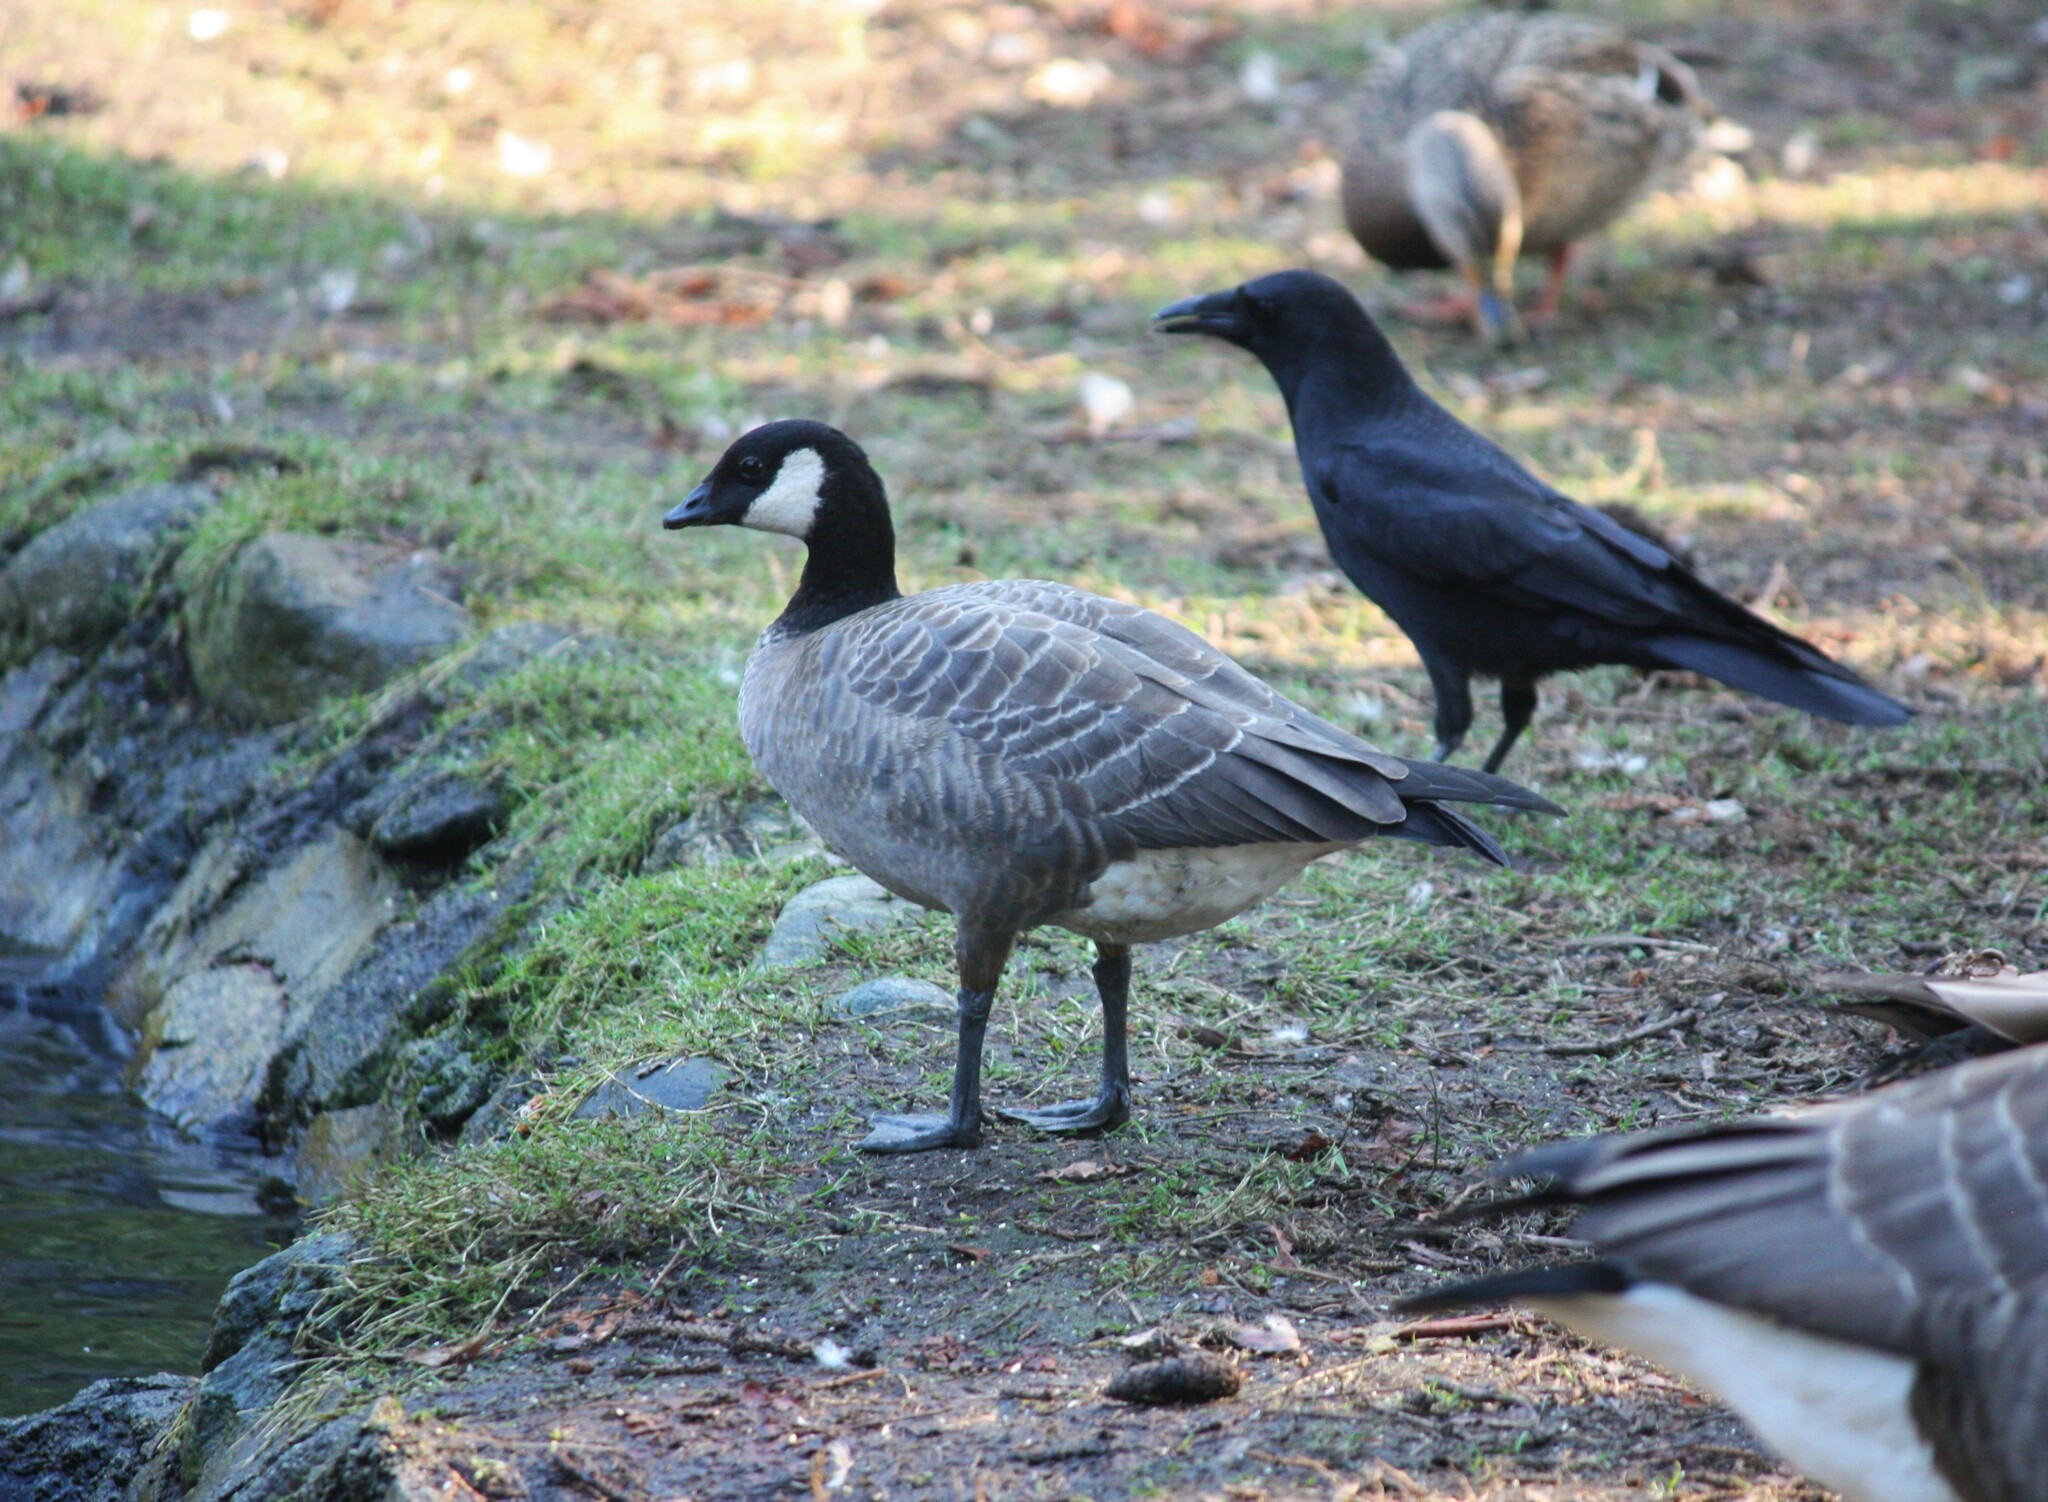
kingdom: Animalia
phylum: Chordata
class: Aves
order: Anseriformes
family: Anatidae
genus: Branta
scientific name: Branta hutchinsii
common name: Cackling goose
